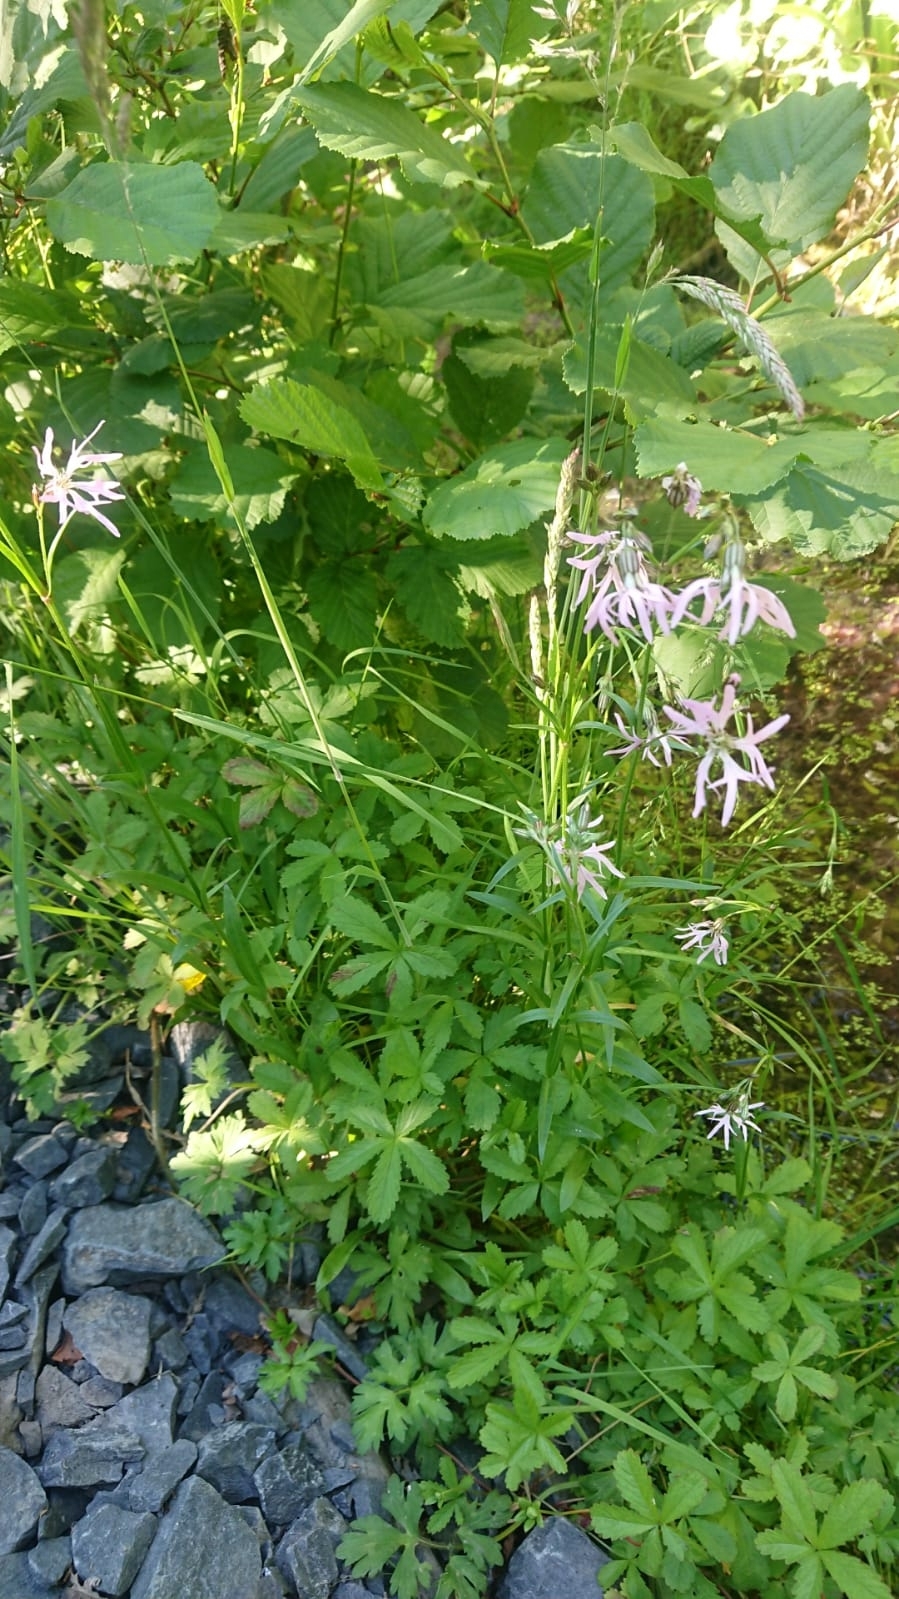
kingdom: Plantae
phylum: Tracheophyta
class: Magnoliopsida
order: Caryophyllales
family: Caryophyllaceae
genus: Silene
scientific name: Silene flos-cuculi
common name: Ragged-robin
